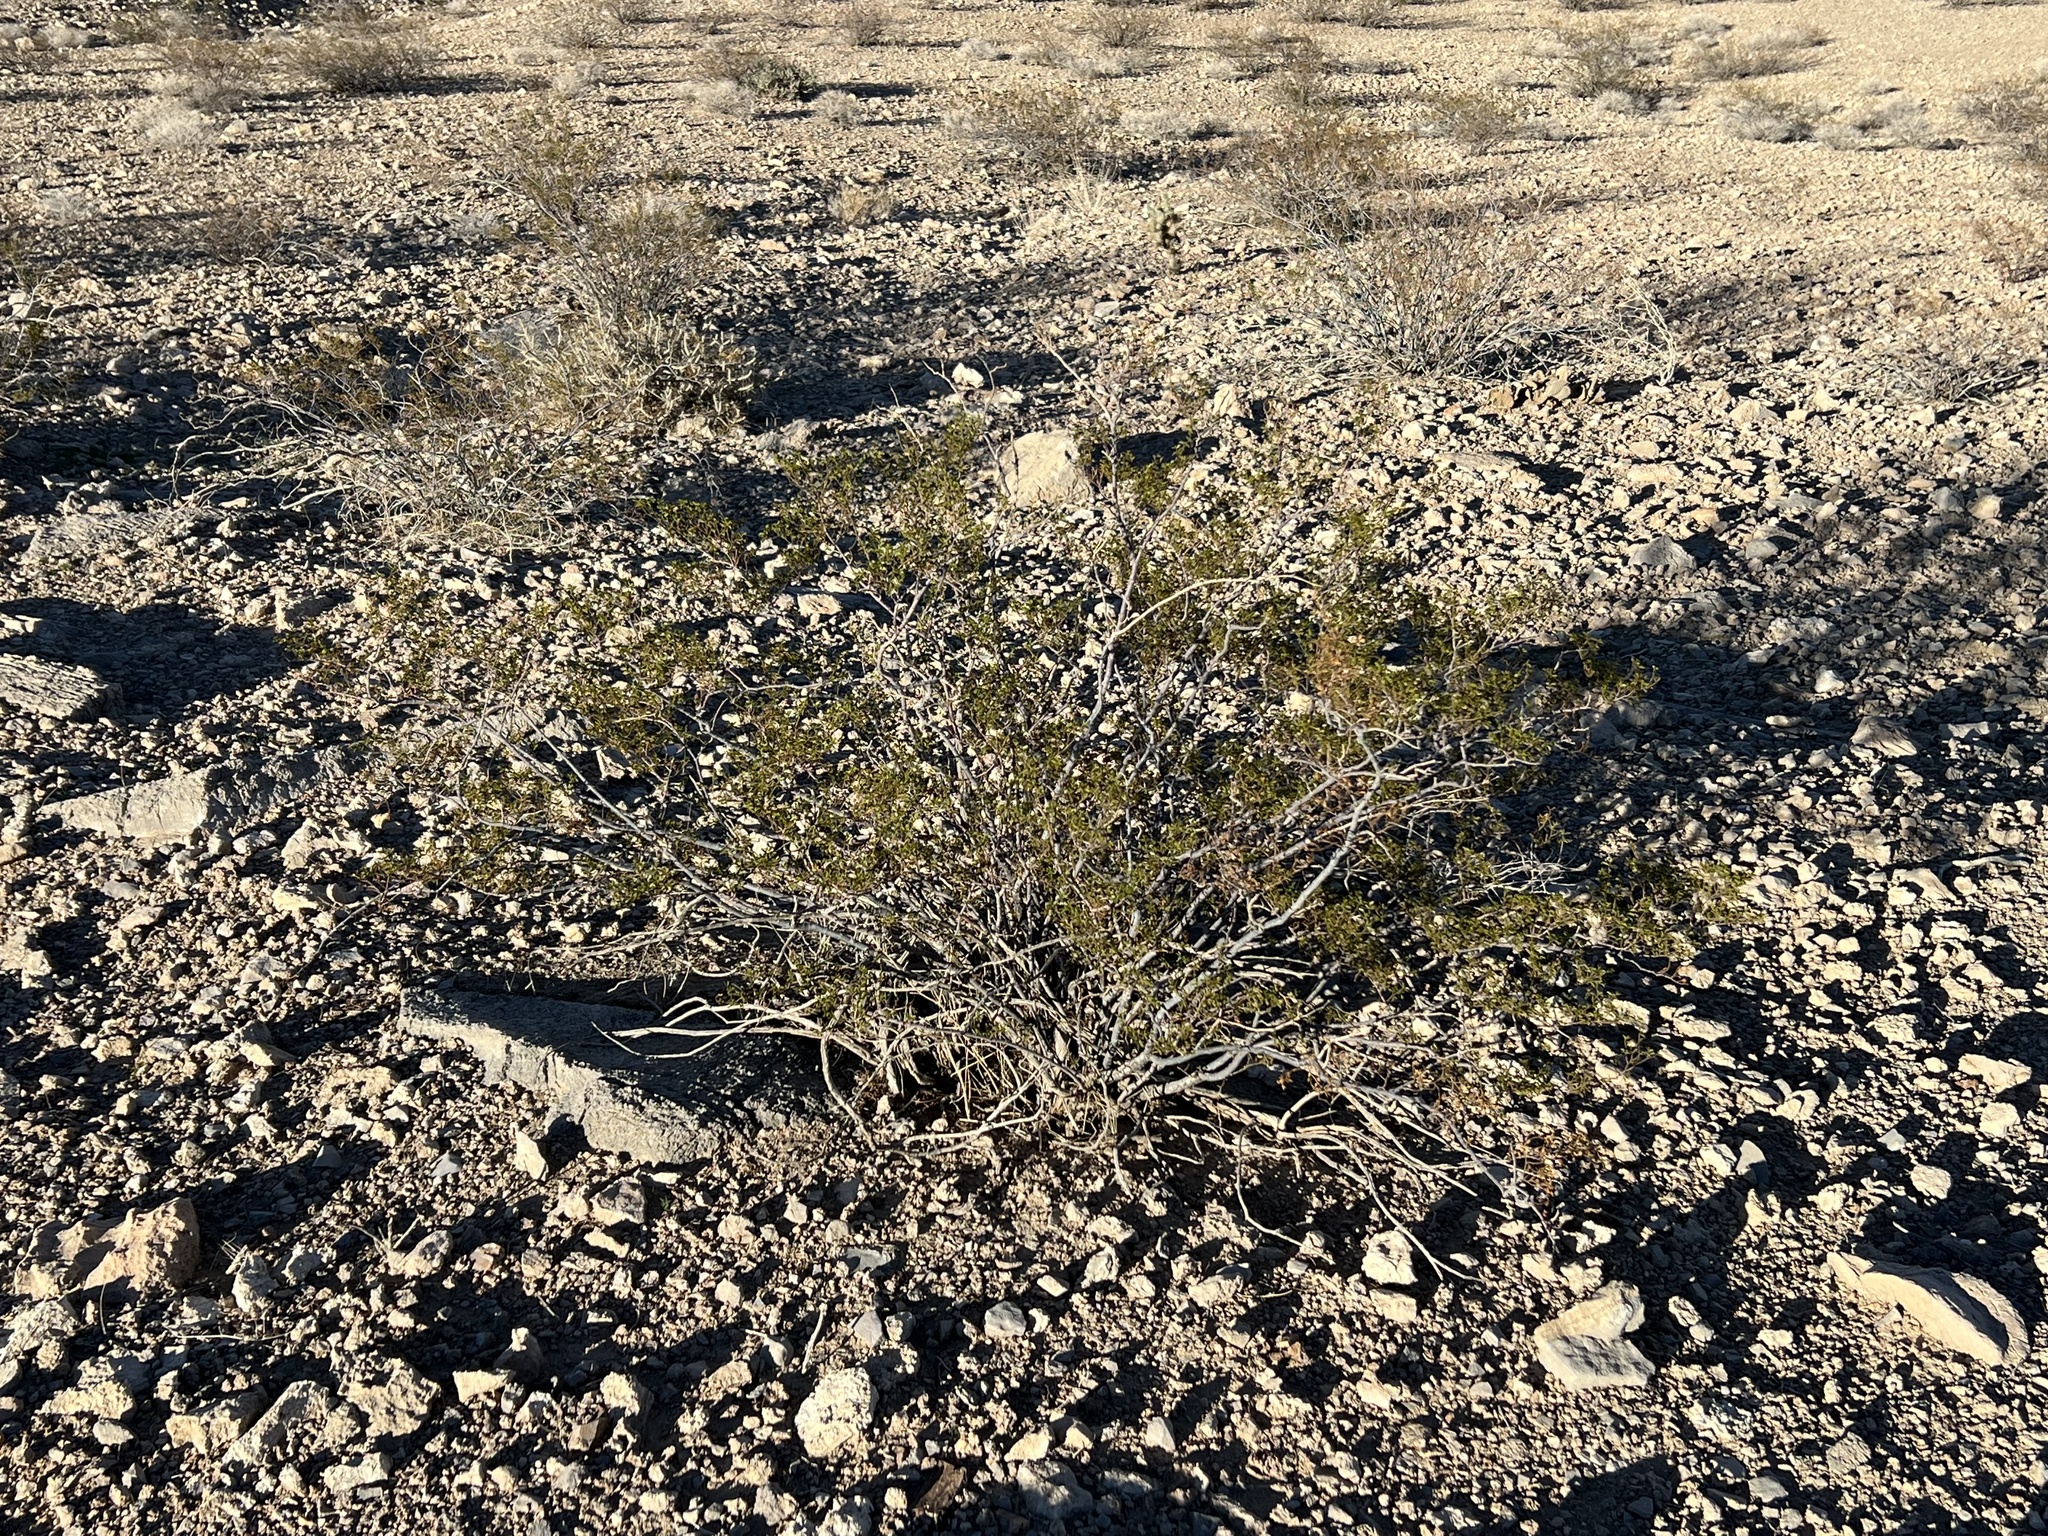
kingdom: Plantae
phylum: Tracheophyta
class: Magnoliopsida
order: Zygophyllales
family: Zygophyllaceae
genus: Larrea
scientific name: Larrea tridentata
